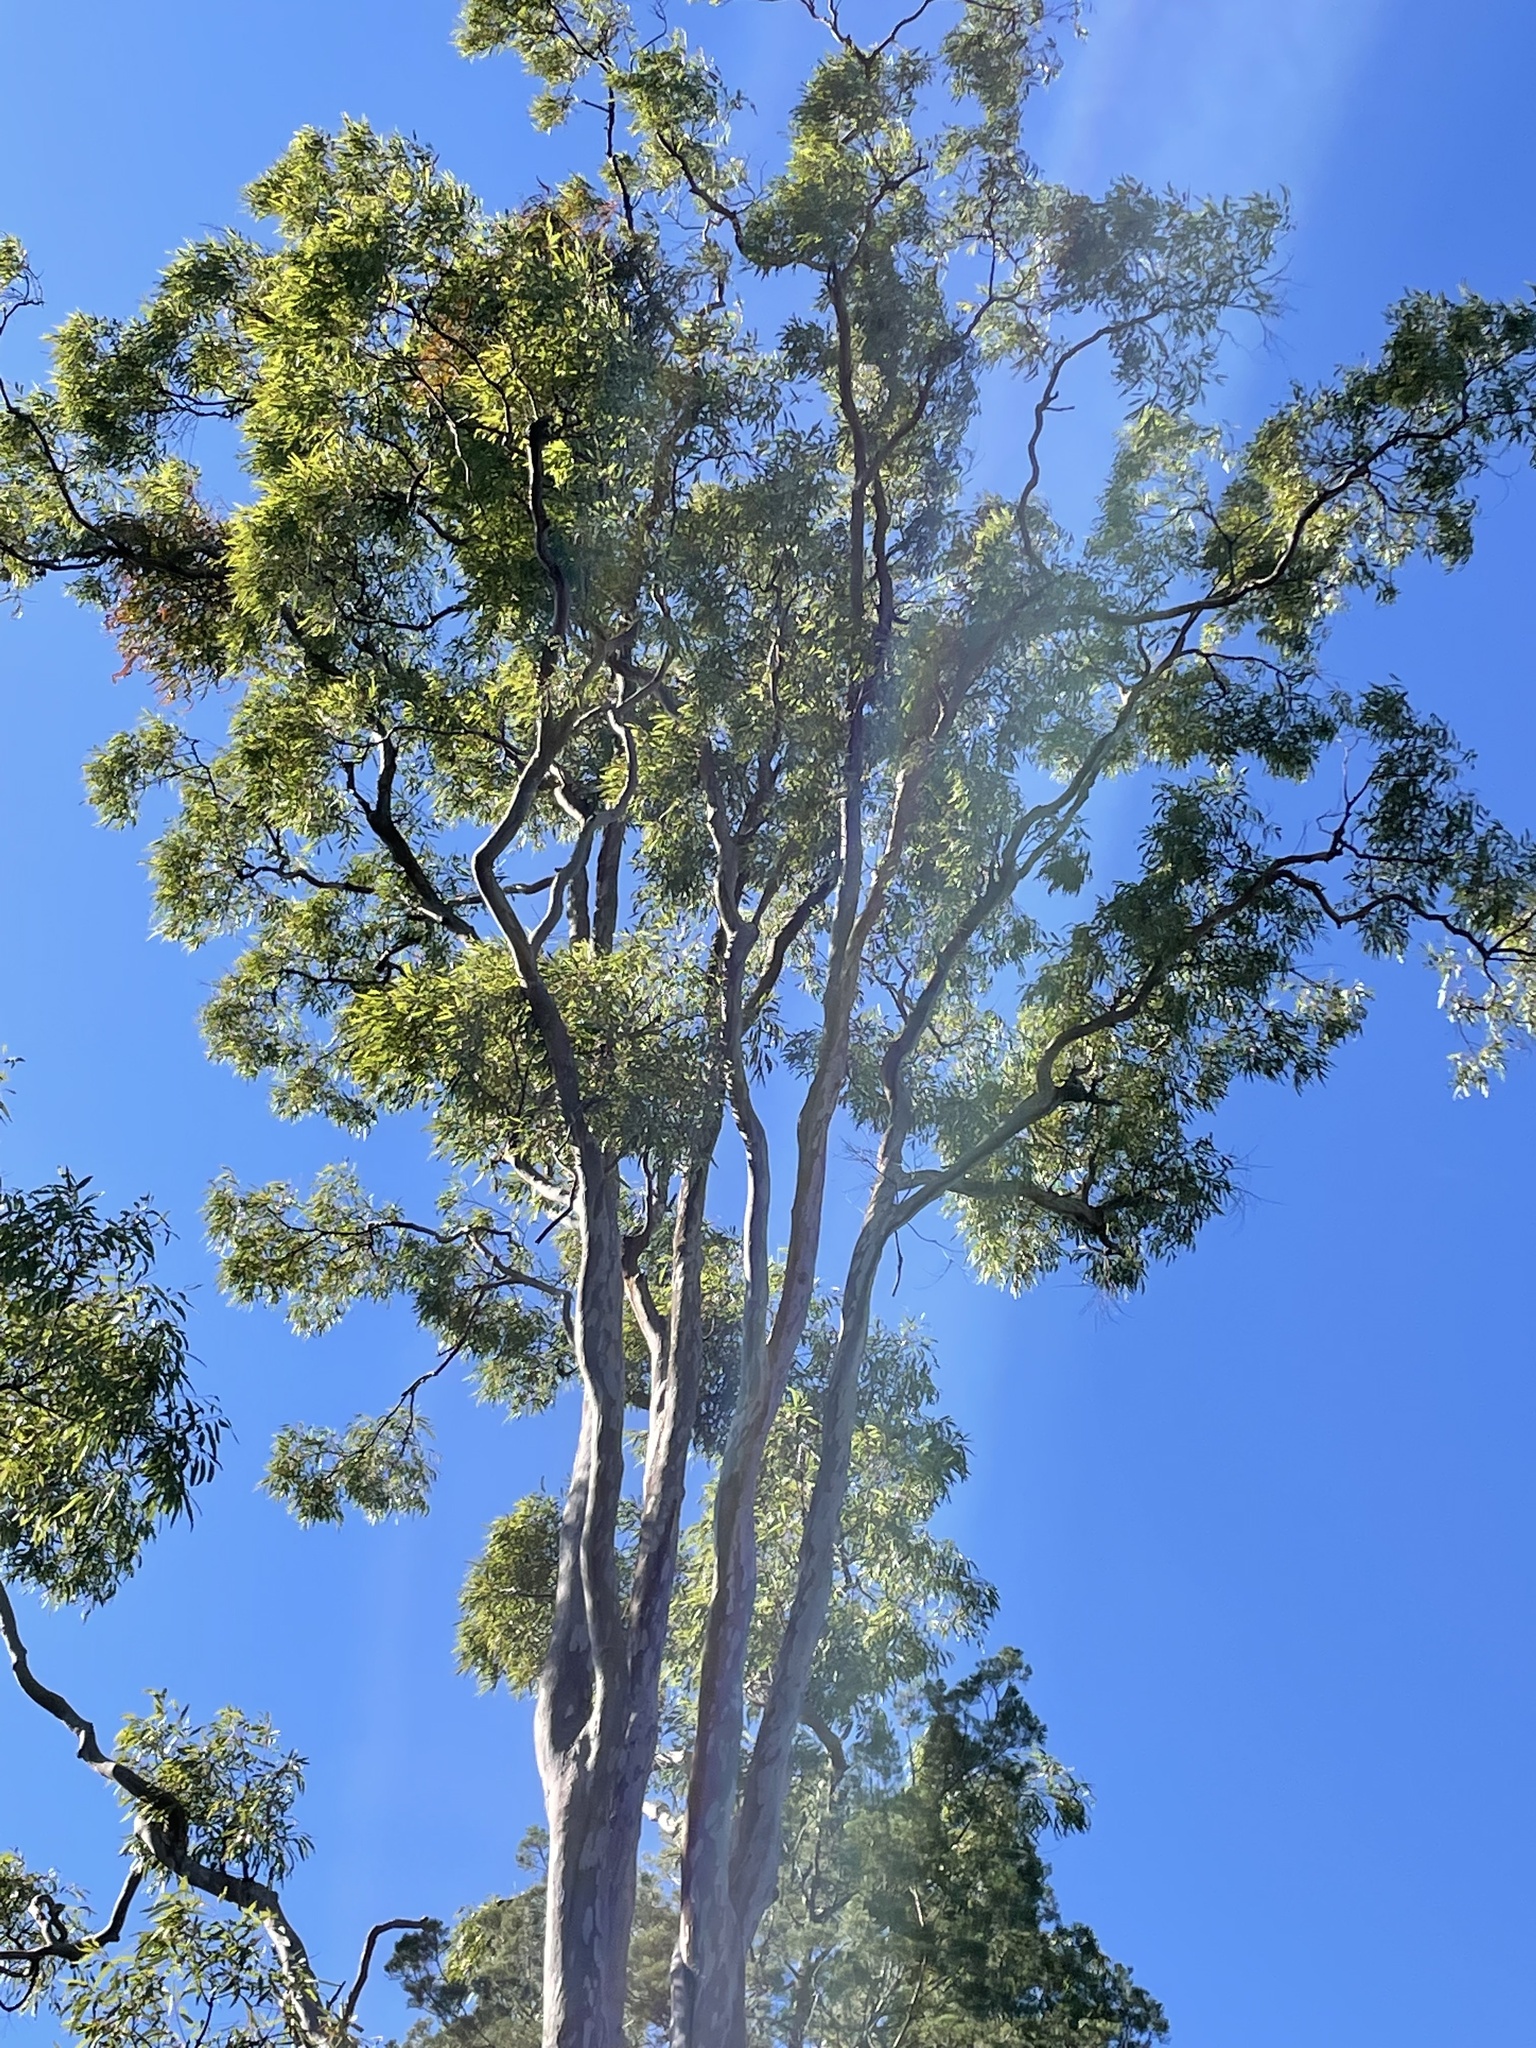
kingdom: Plantae
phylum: Tracheophyta
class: Magnoliopsida
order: Myrtales
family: Myrtaceae
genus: Angophora
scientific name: Angophora leiocarpa
